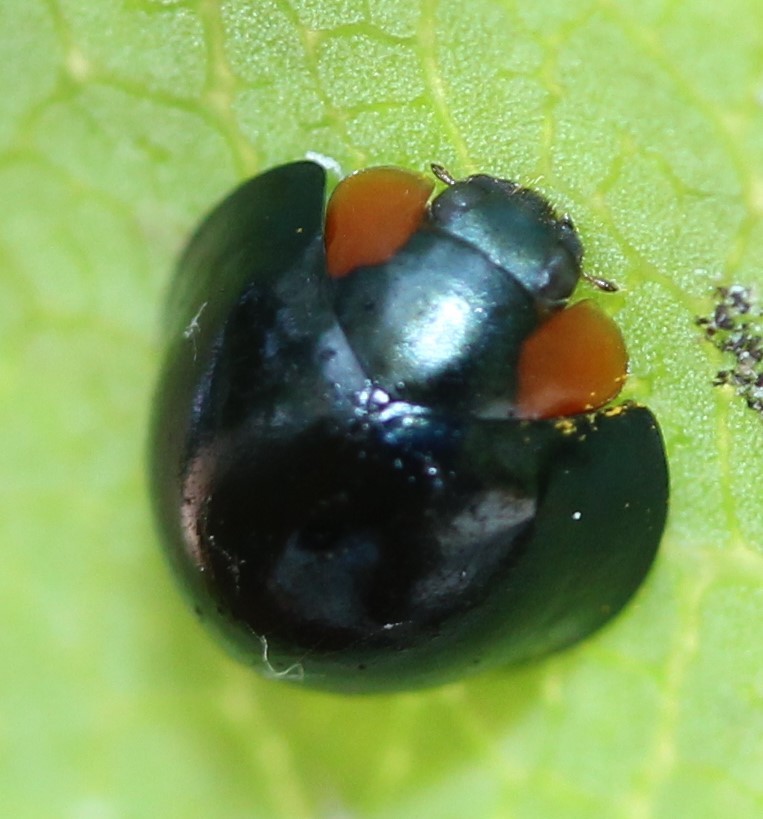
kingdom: Animalia
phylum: Arthropoda
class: Insecta
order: Coleoptera
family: Coccinellidae
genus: Curinus
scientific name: Curinus coeruleus
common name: Ladybird beetle
